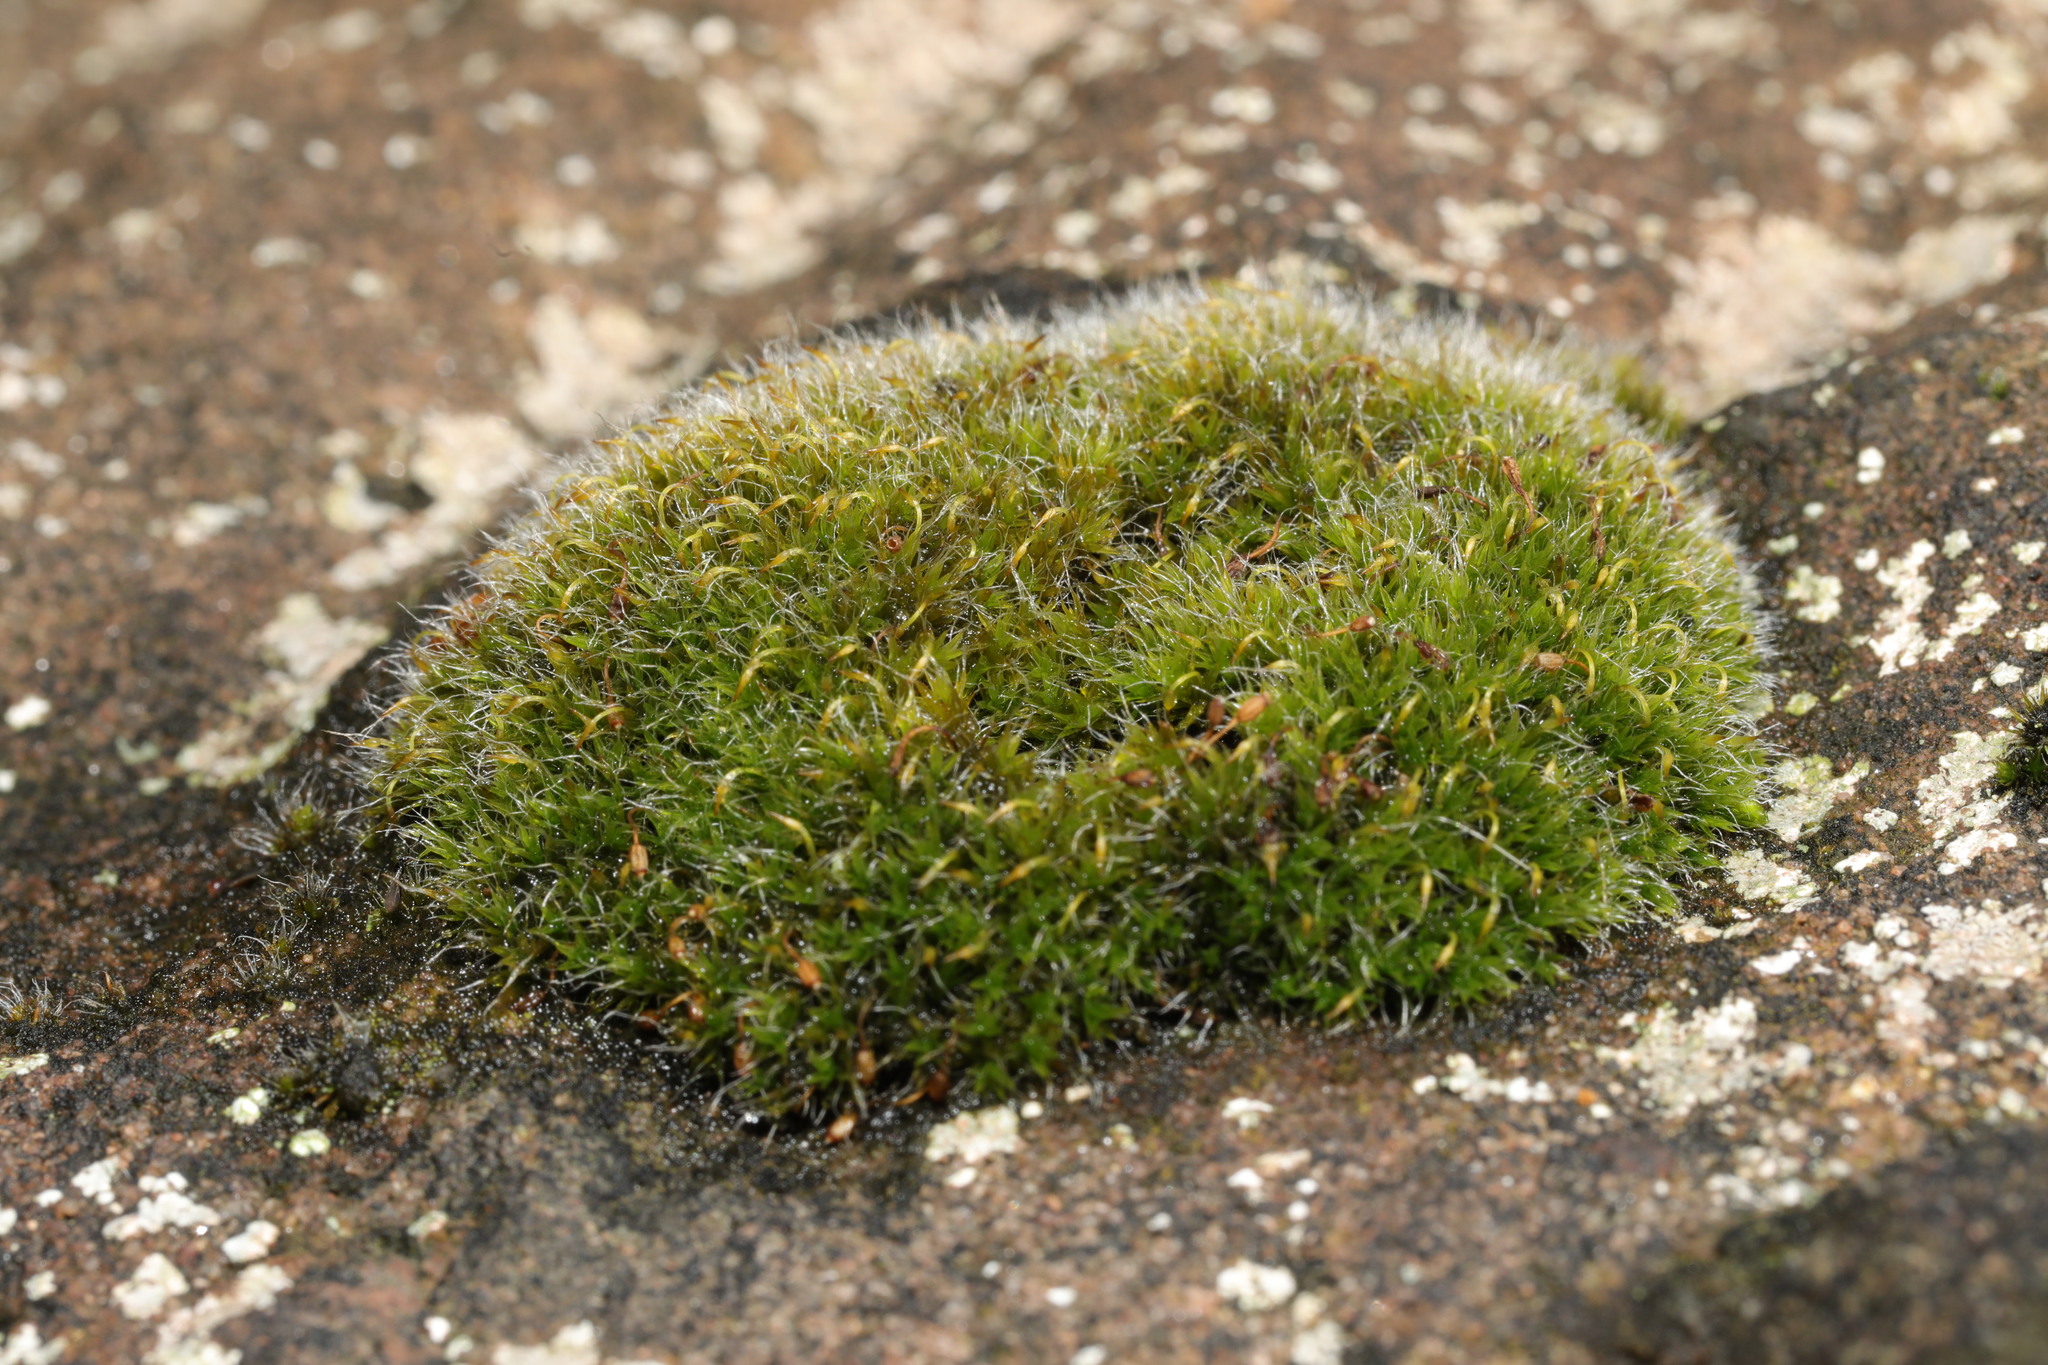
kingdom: Plantae
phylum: Bryophyta
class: Bryopsida
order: Grimmiales
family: Grimmiaceae
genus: Grimmia
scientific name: Grimmia pulvinata
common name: Grey-cushioned grimmia
